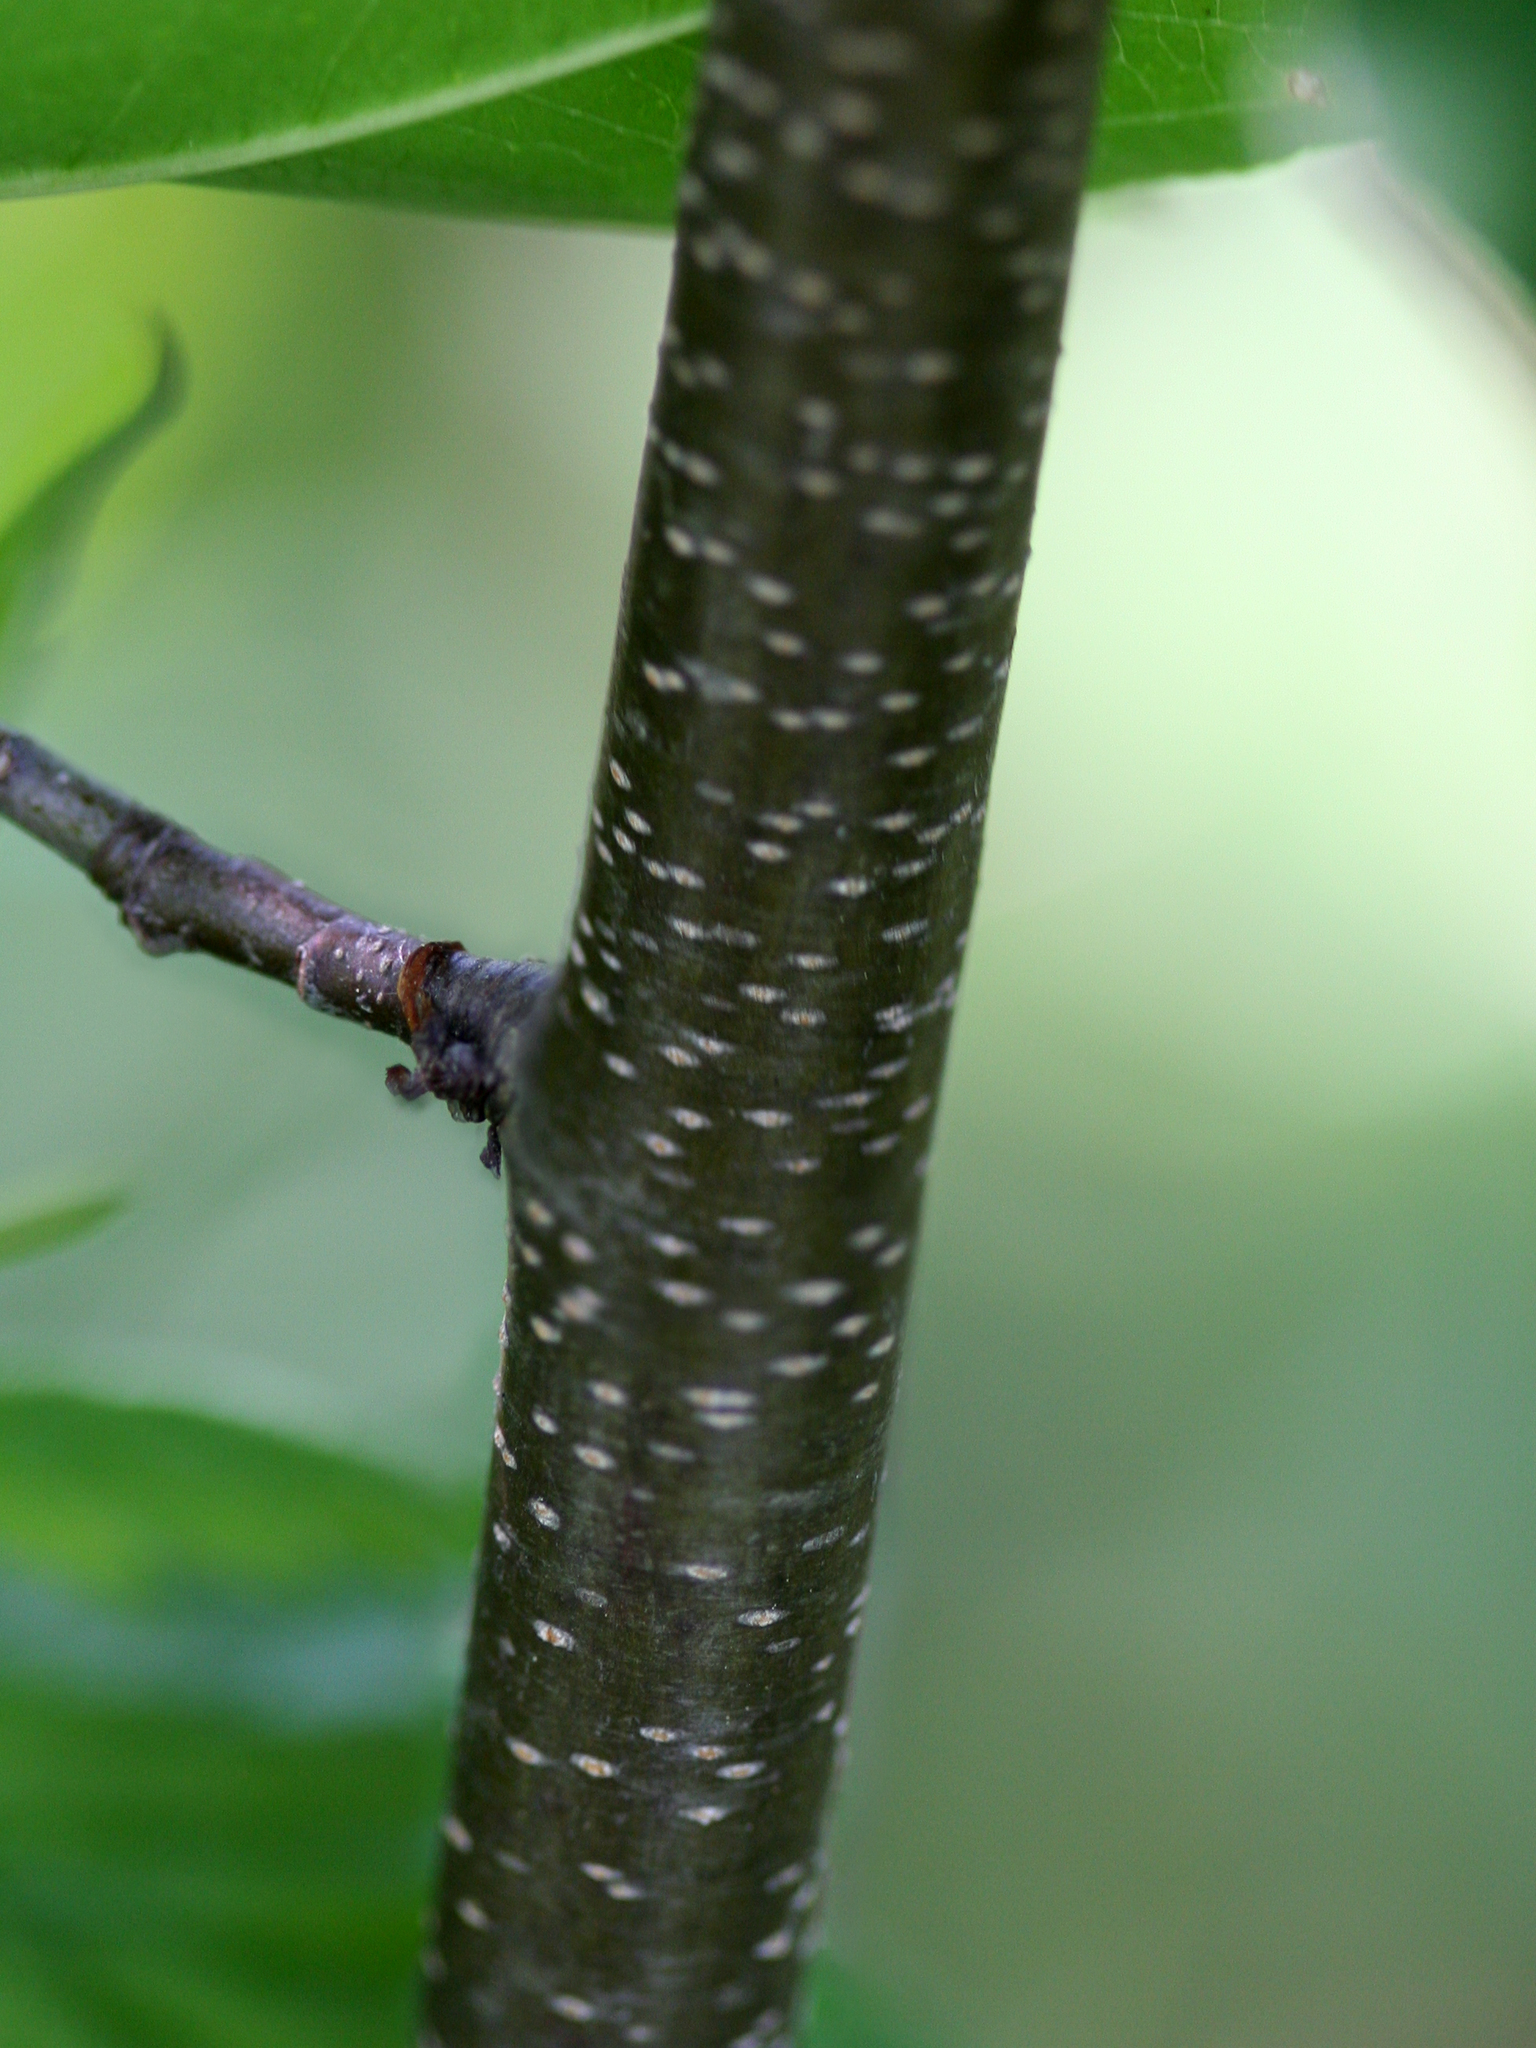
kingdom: Plantae
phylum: Tracheophyta
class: Magnoliopsida
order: Rosales
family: Rosaceae
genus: Prunus
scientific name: Prunus serotina
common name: Black cherry
